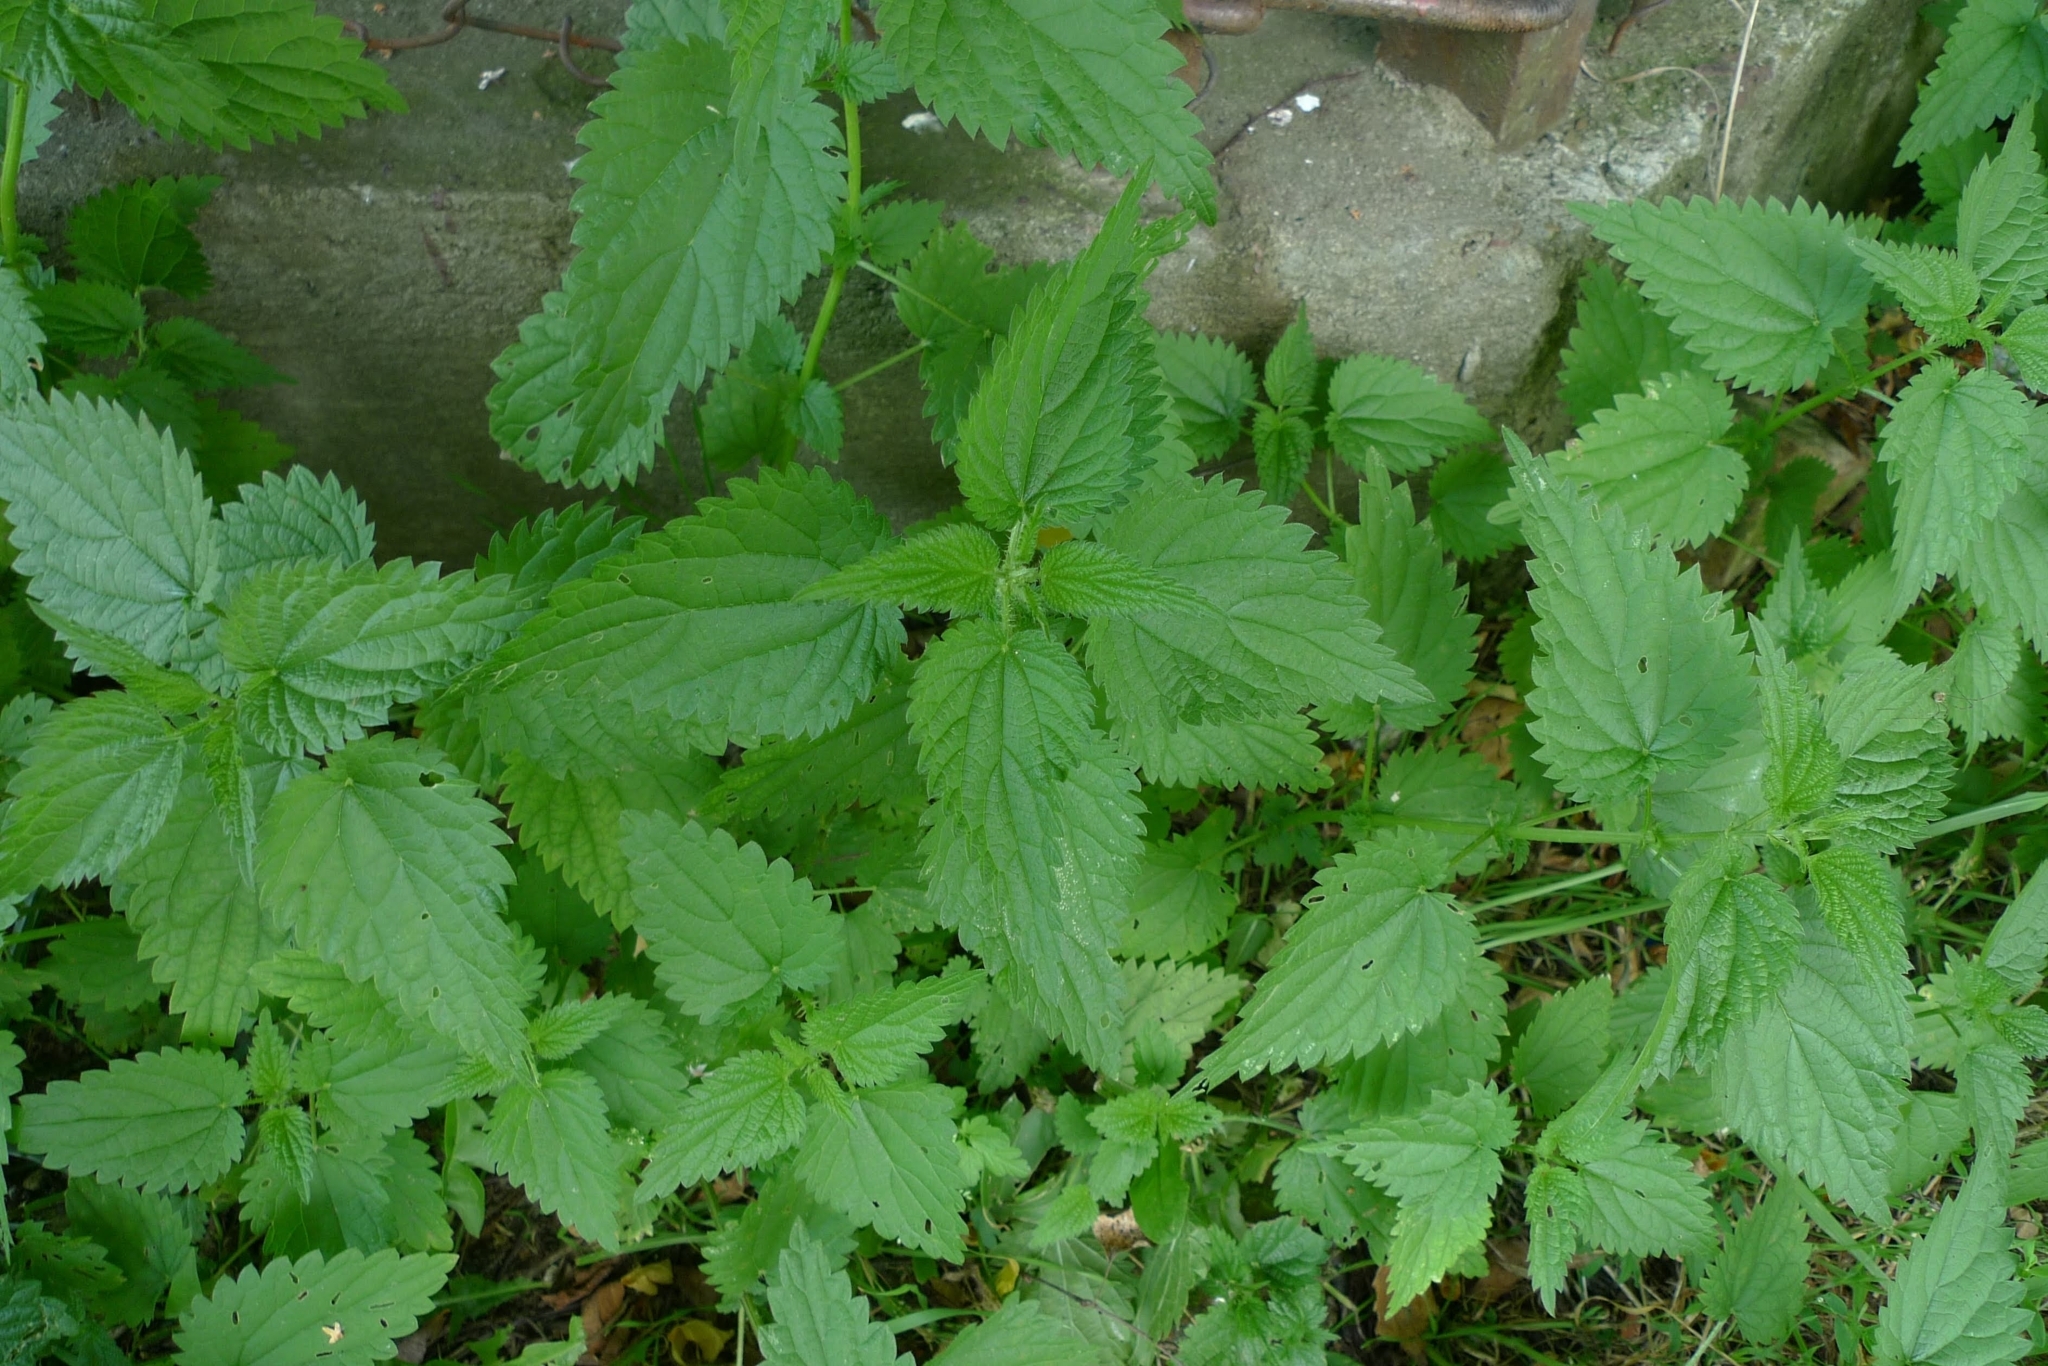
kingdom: Plantae
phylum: Tracheophyta
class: Magnoliopsida
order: Rosales
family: Urticaceae
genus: Urtica
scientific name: Urtica dioica
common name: Common nettle
